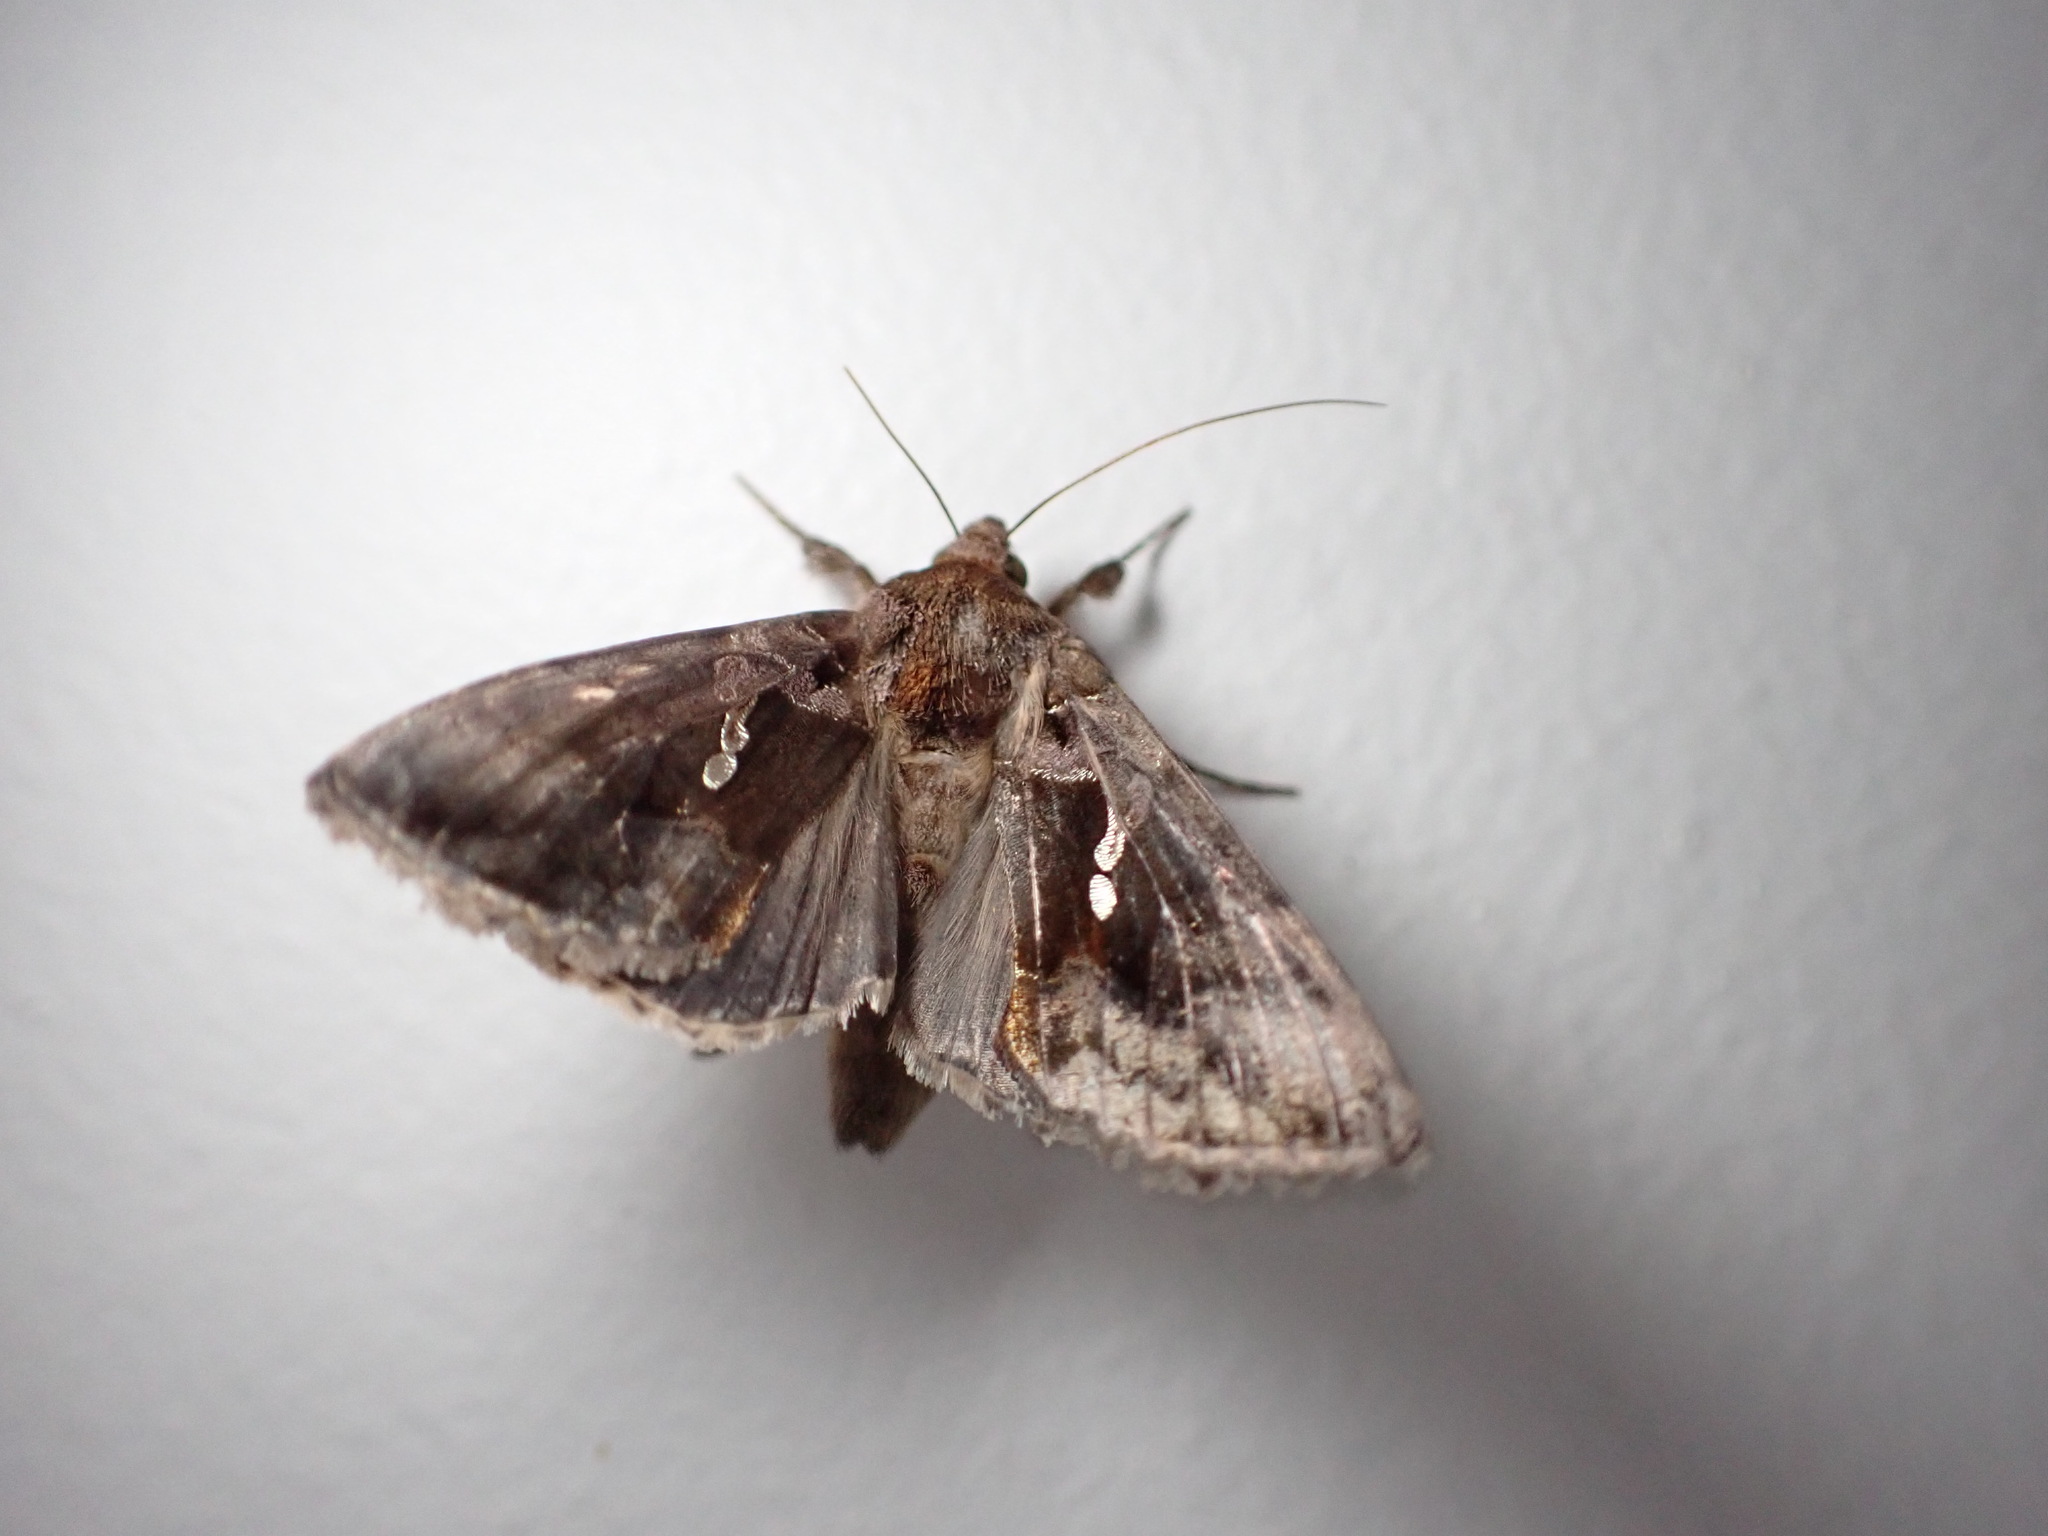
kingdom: Animalia
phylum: Arthropoda
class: Insecta
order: Lepidoptera
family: Noctuidae
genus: Chrysodeixis
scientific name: Chrysodeixis eriosoma
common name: Green garden looper
